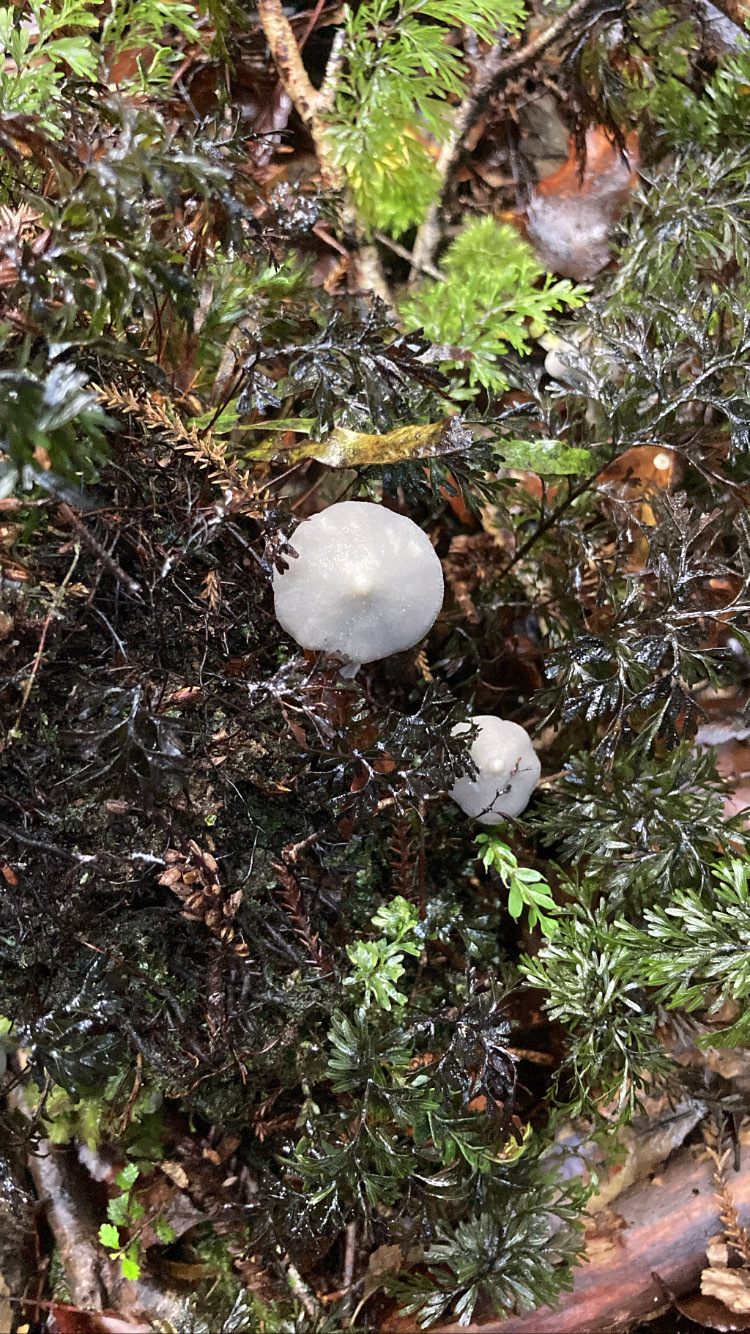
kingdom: Fungi
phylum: Basidiomycota
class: Agaricomycetes
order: Agaricales
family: Entolomataceae
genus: Entoloma
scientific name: Entoloma canoconicum
